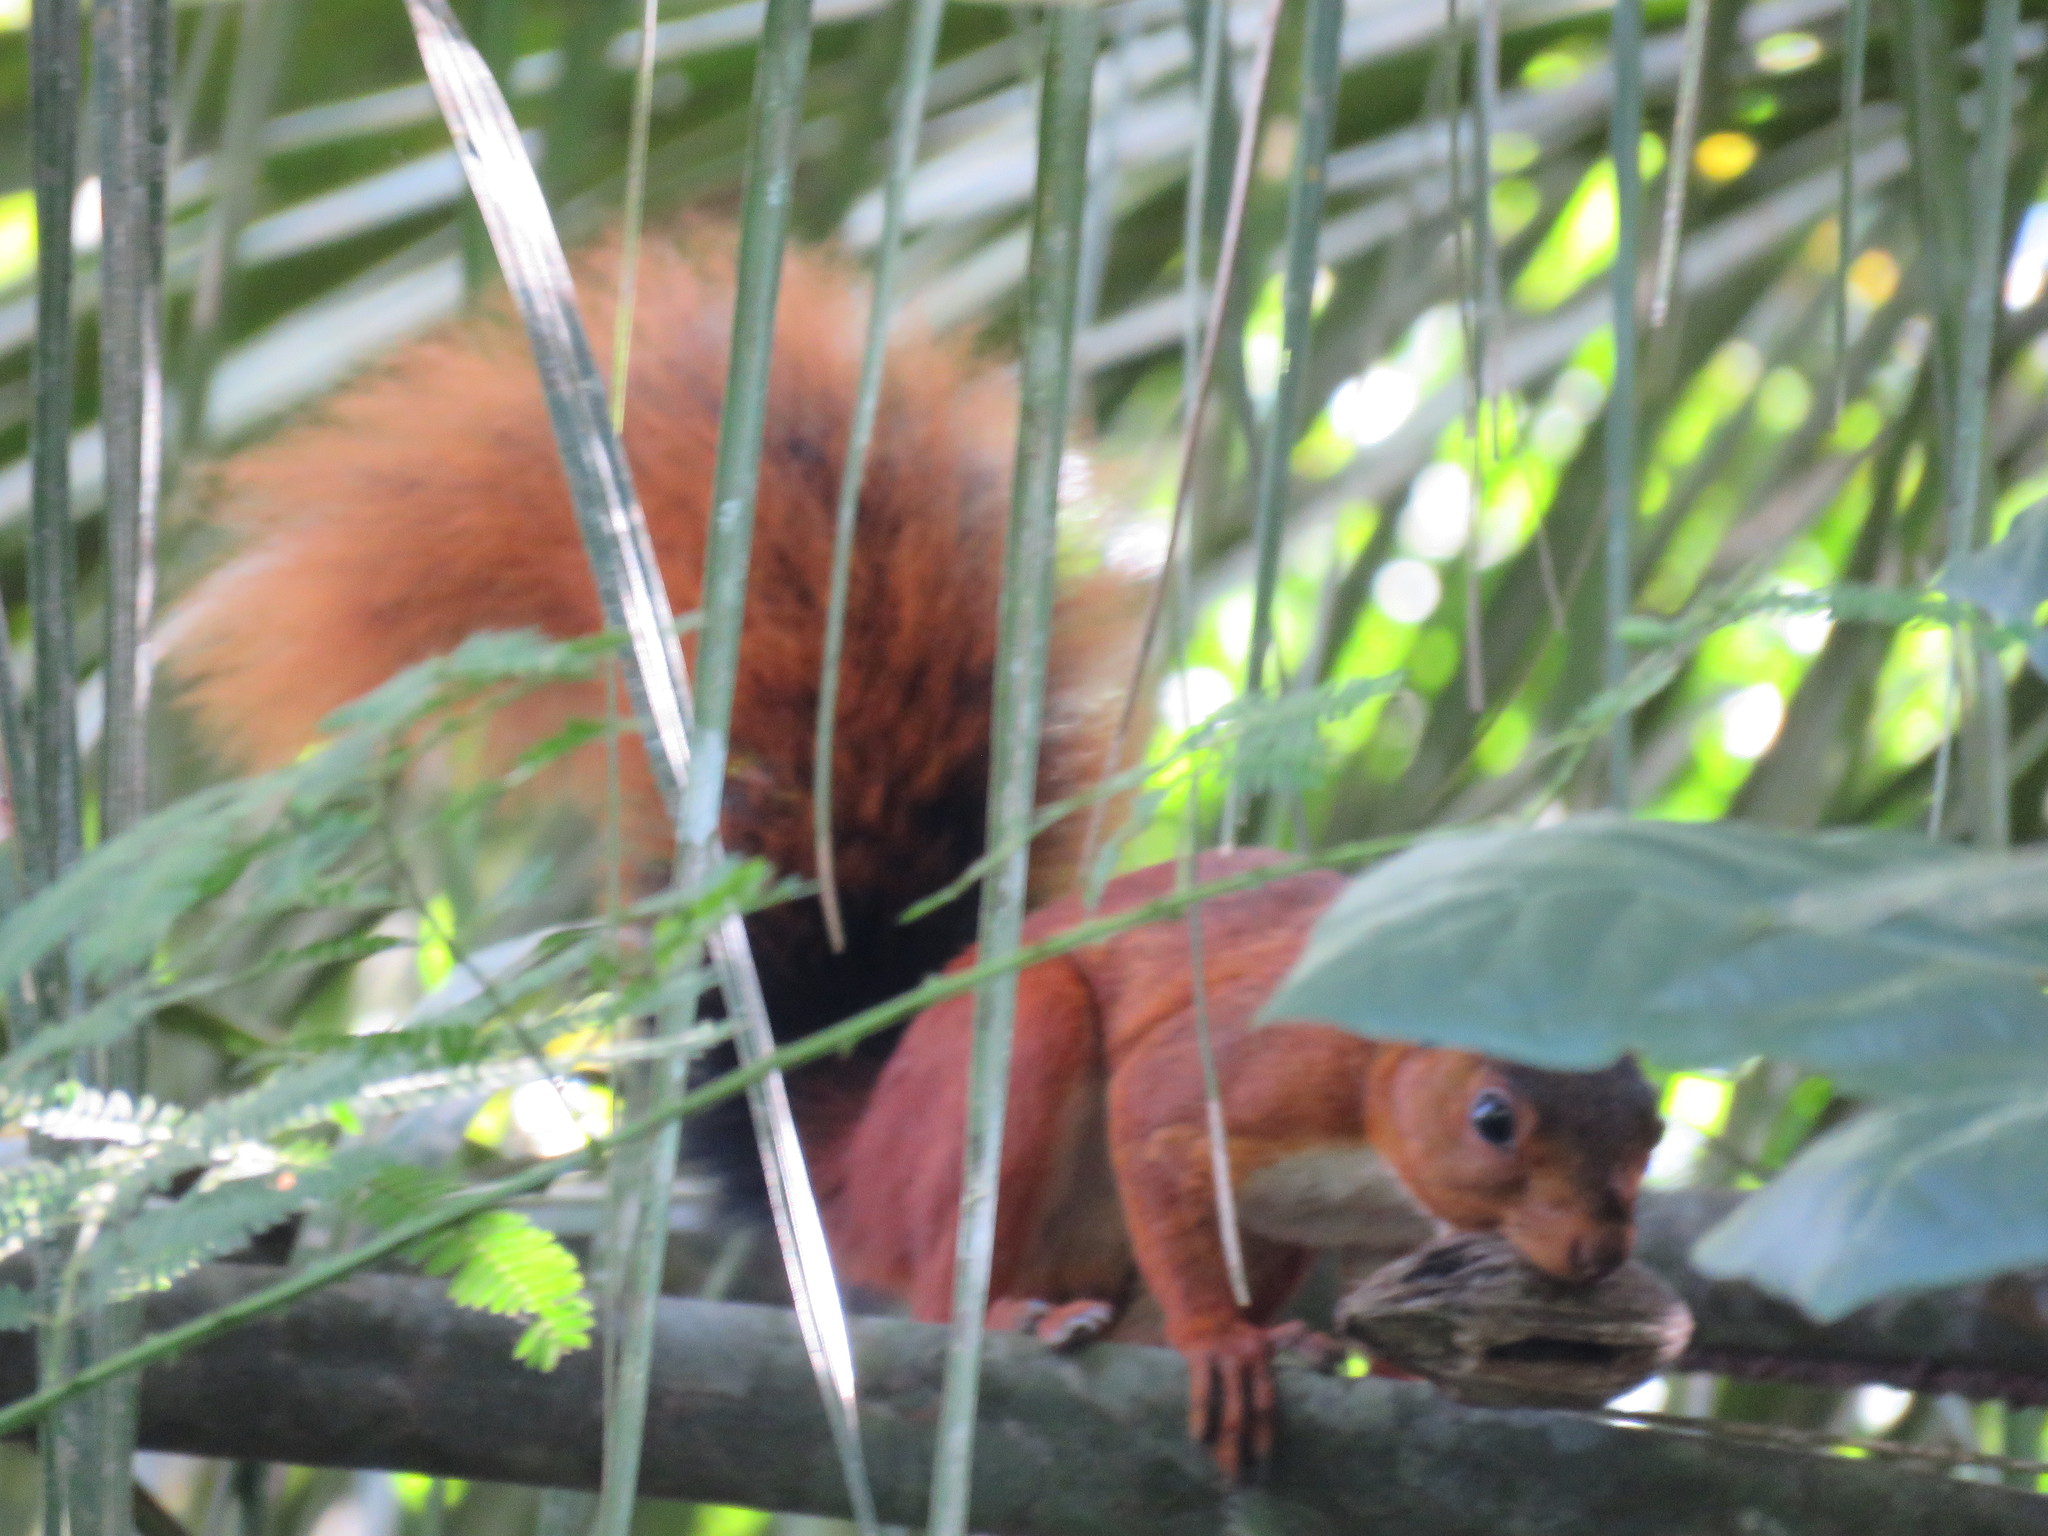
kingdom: Animalia
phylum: Chordata
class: Mammalia
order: Rodentia
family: Sciuridae
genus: Sciurus
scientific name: Sciurus spadiceus
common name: Southern amazon red squirrel
